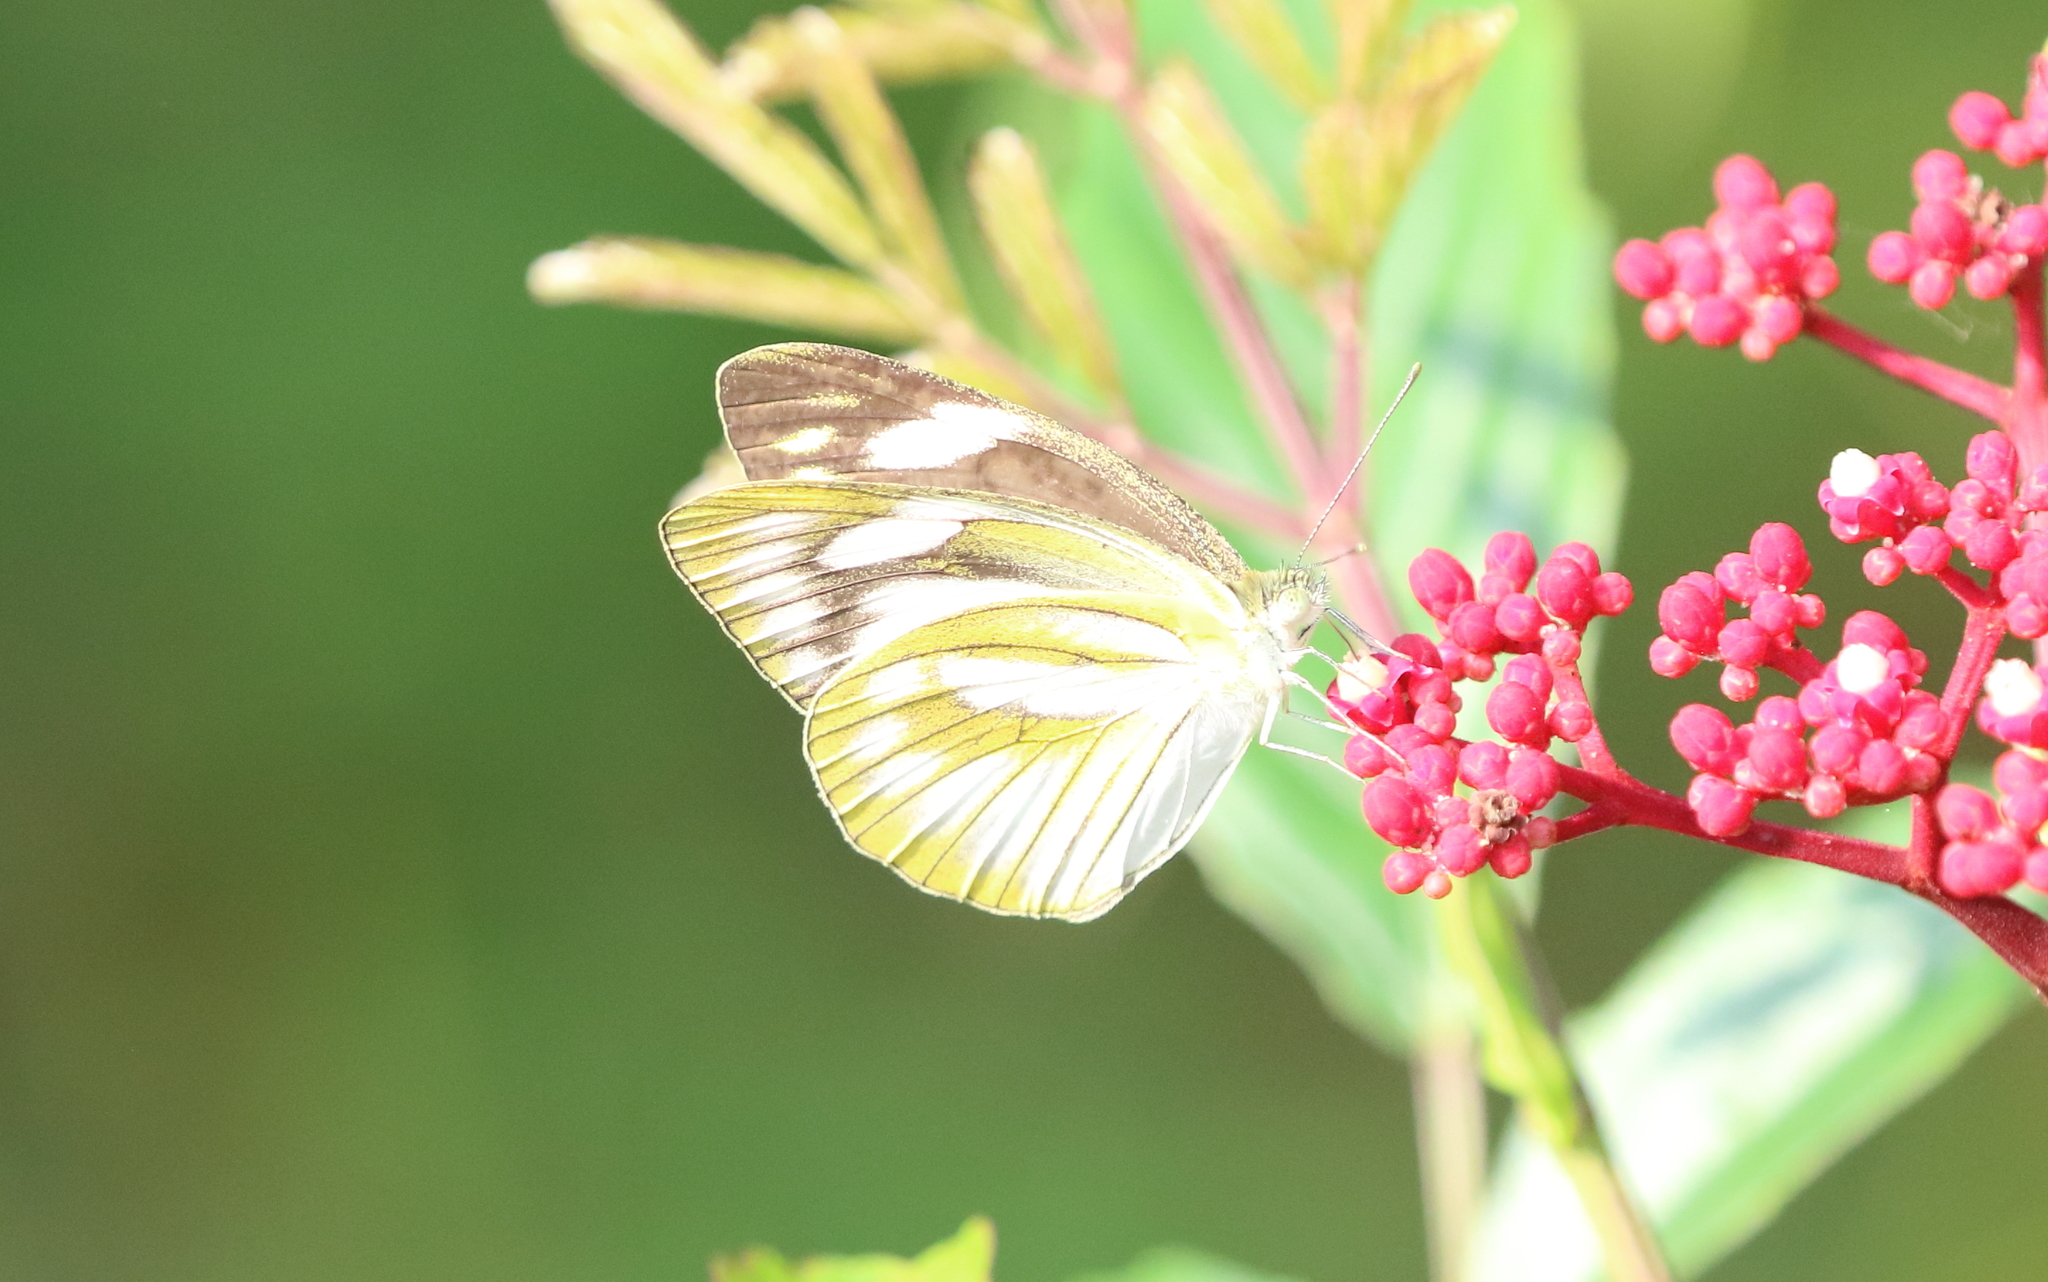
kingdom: Animalia
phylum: Arthropoda
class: Insecta
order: Lepidoptera
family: Pieridae
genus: Appias
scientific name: Appias libythea
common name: Striped albatross
